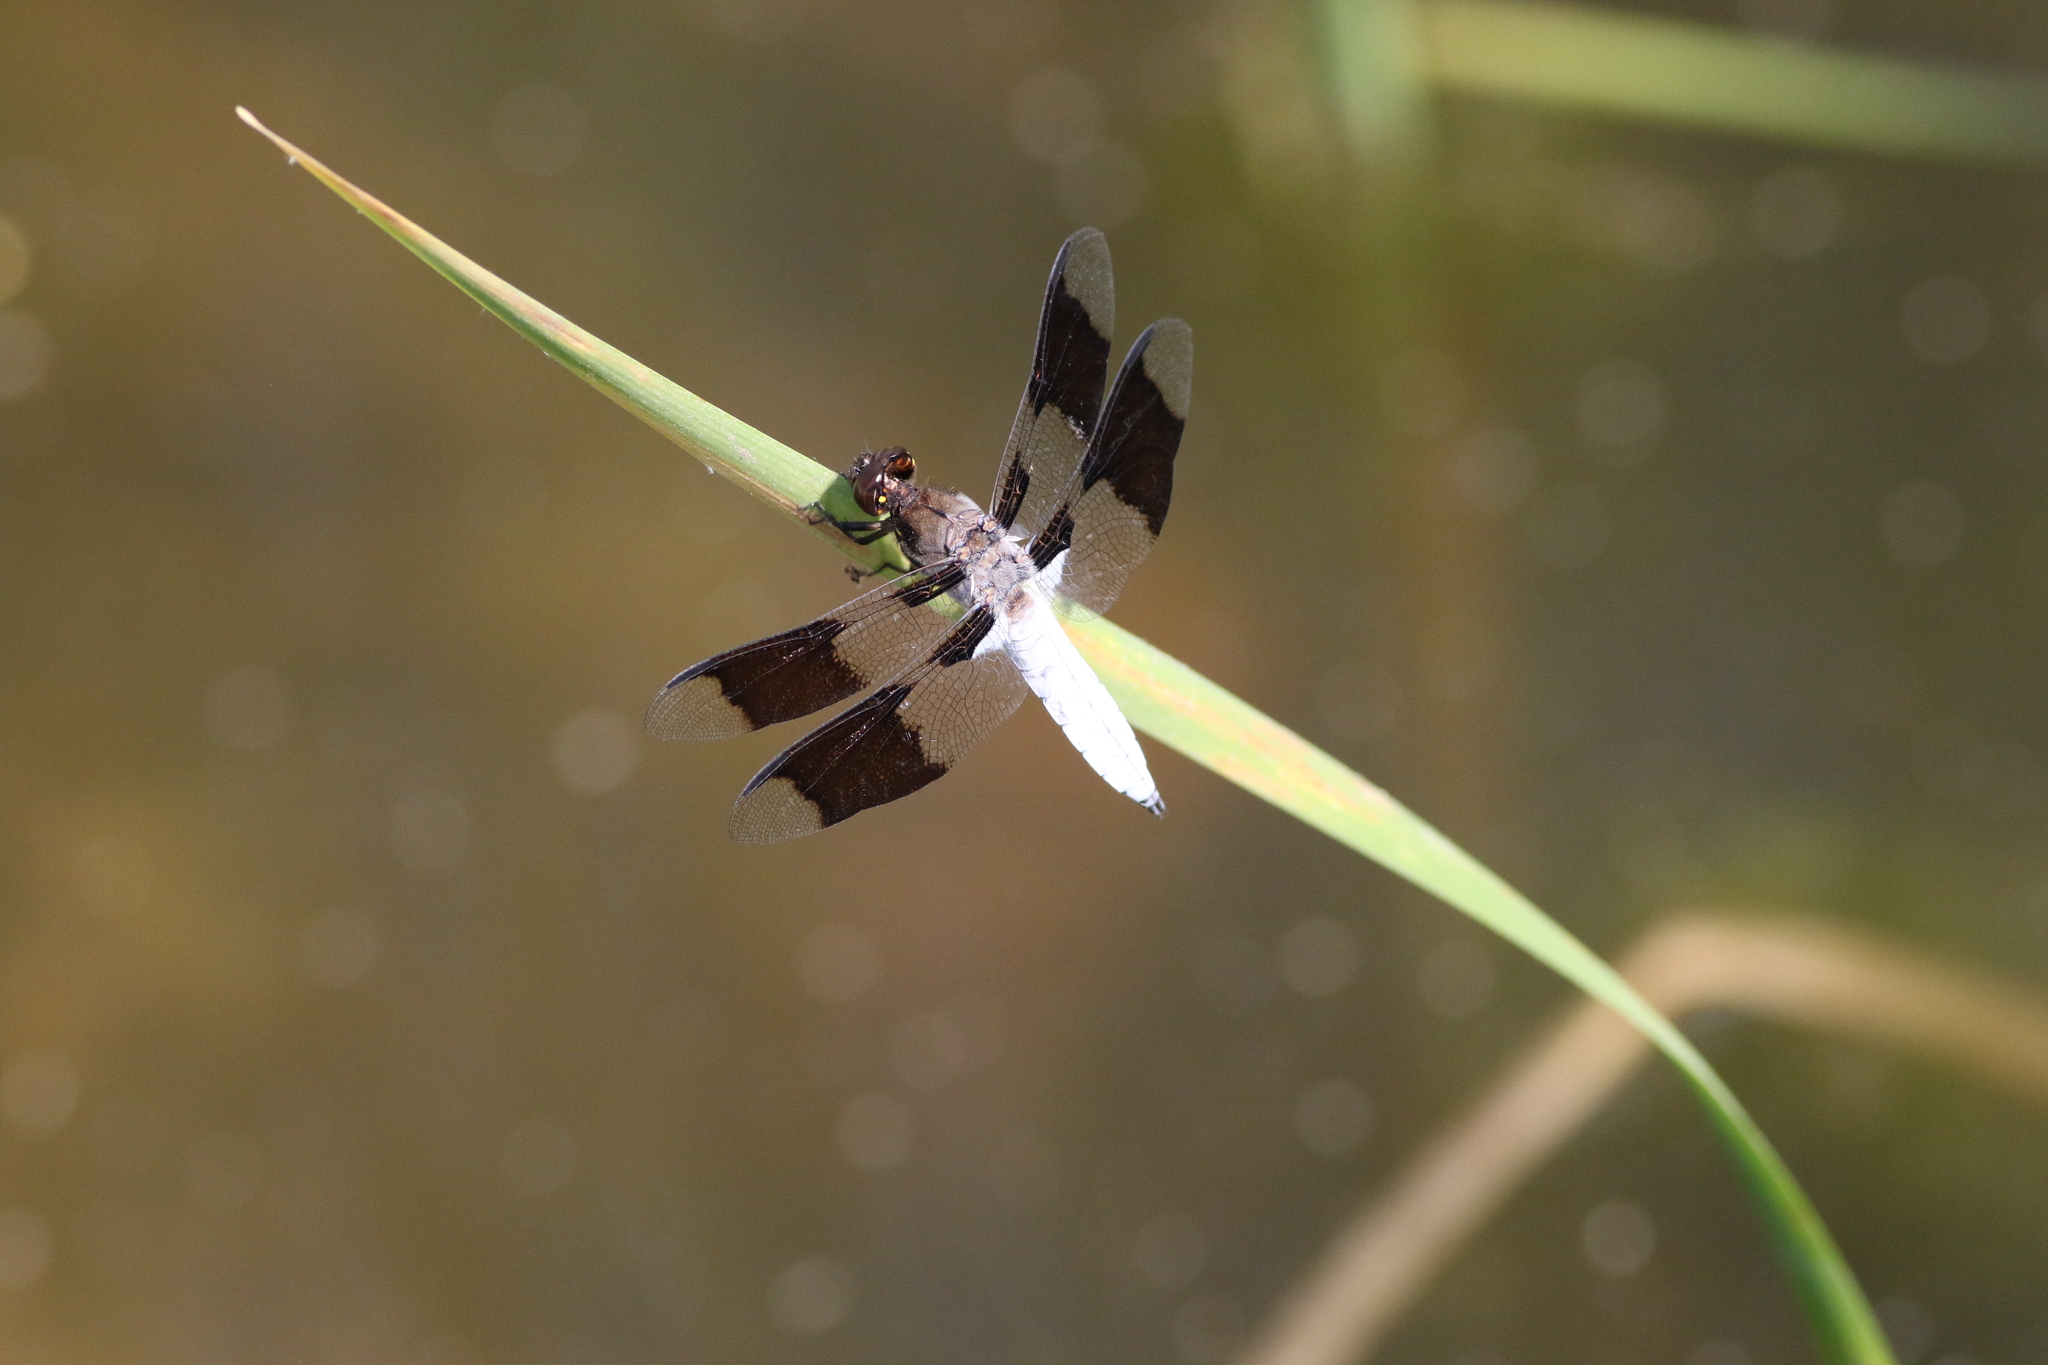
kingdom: Animalia
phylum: Arthropoda
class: Insecta
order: Odonata
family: Libellulidae
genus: Plathemis
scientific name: Plathemis lydia
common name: Common whitetail
